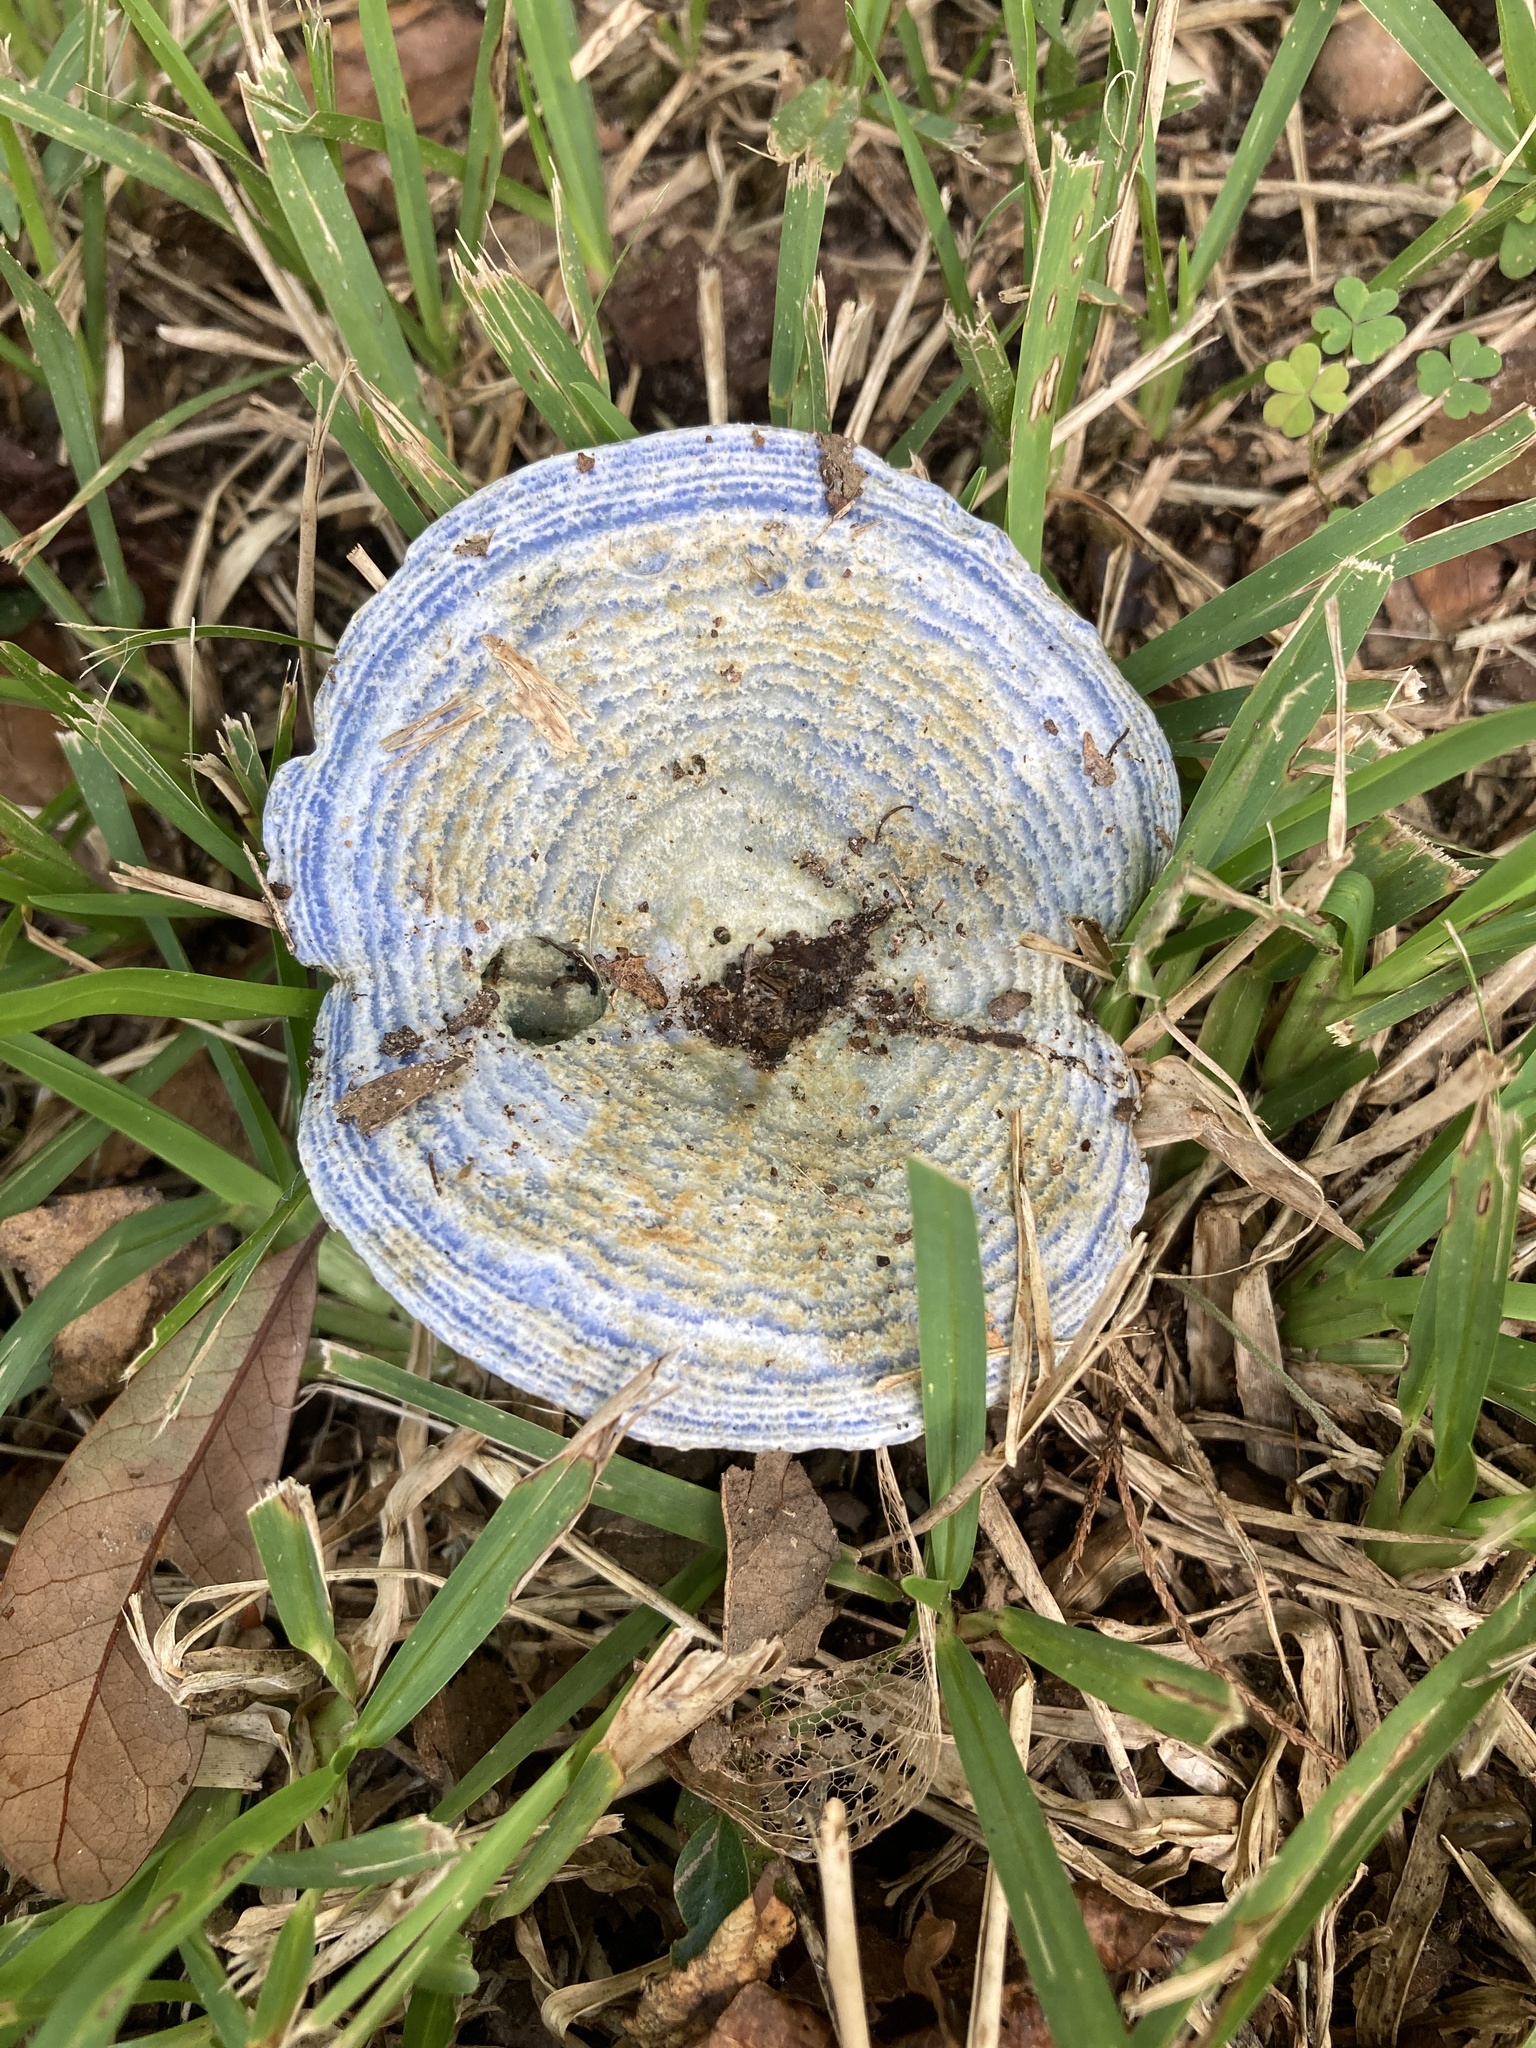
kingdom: Fungi
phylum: Basidiomycota
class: Agaricomycetes
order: Russulales
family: Russulaceae
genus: Lactarius
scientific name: Lactarius indigo
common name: Indigo milk cap
